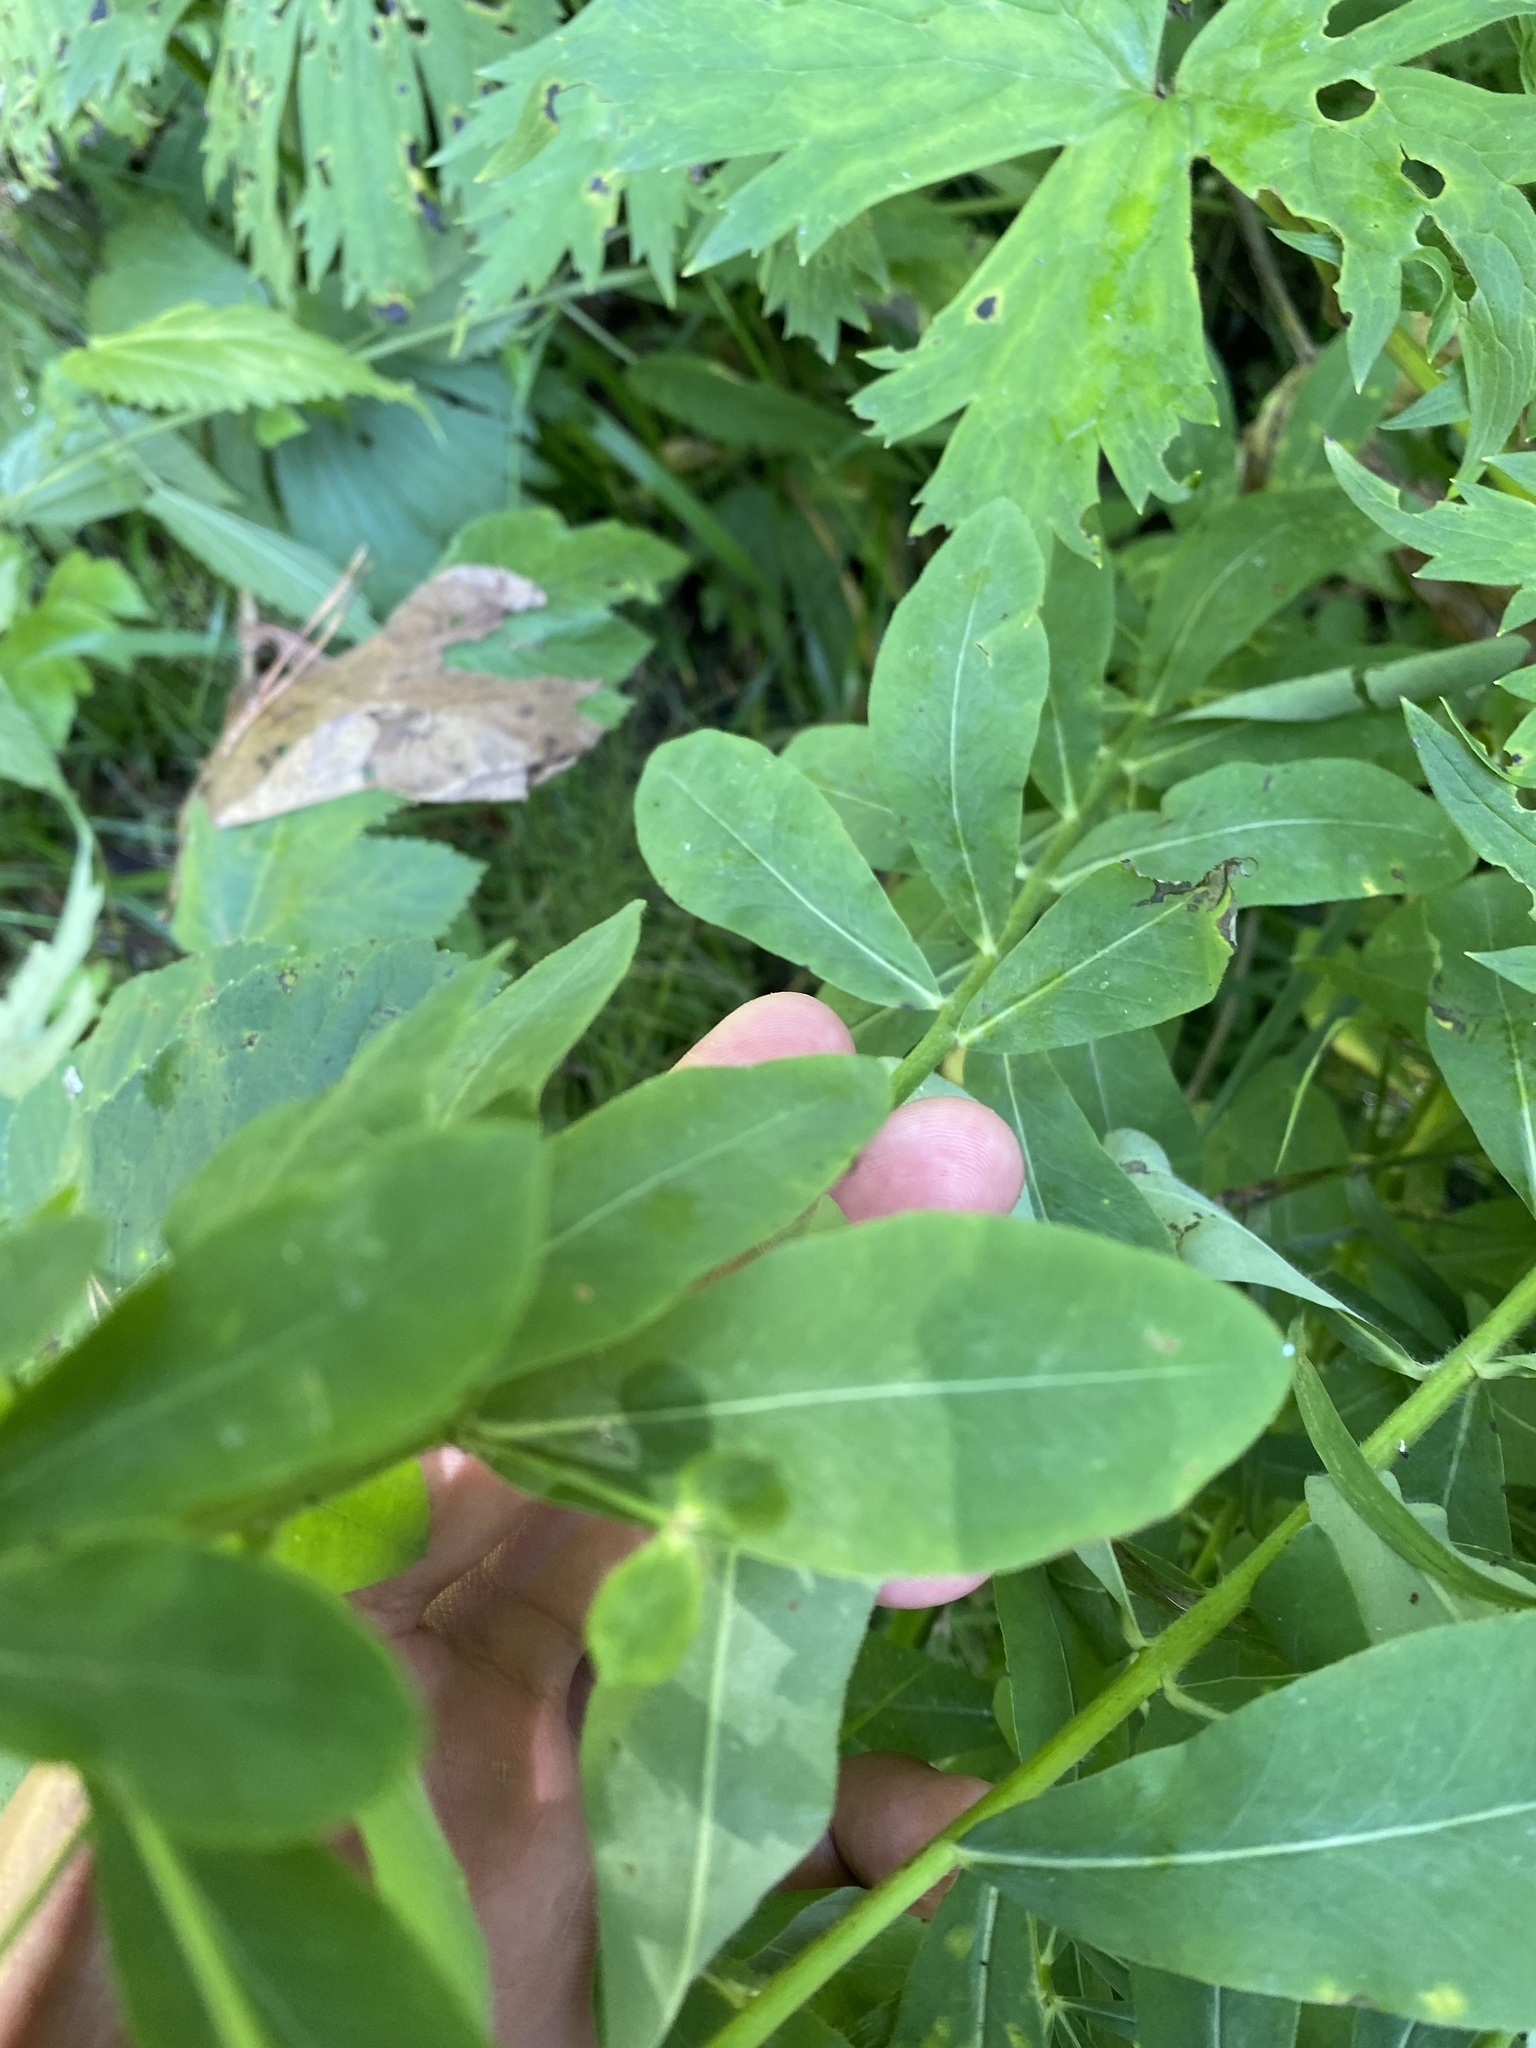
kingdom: Plantae
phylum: Tracheophyta
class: Magnoliopsida
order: Malpighiales
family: Euphorbiaceae
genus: Euphorbia
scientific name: Euphorbia pilosa
